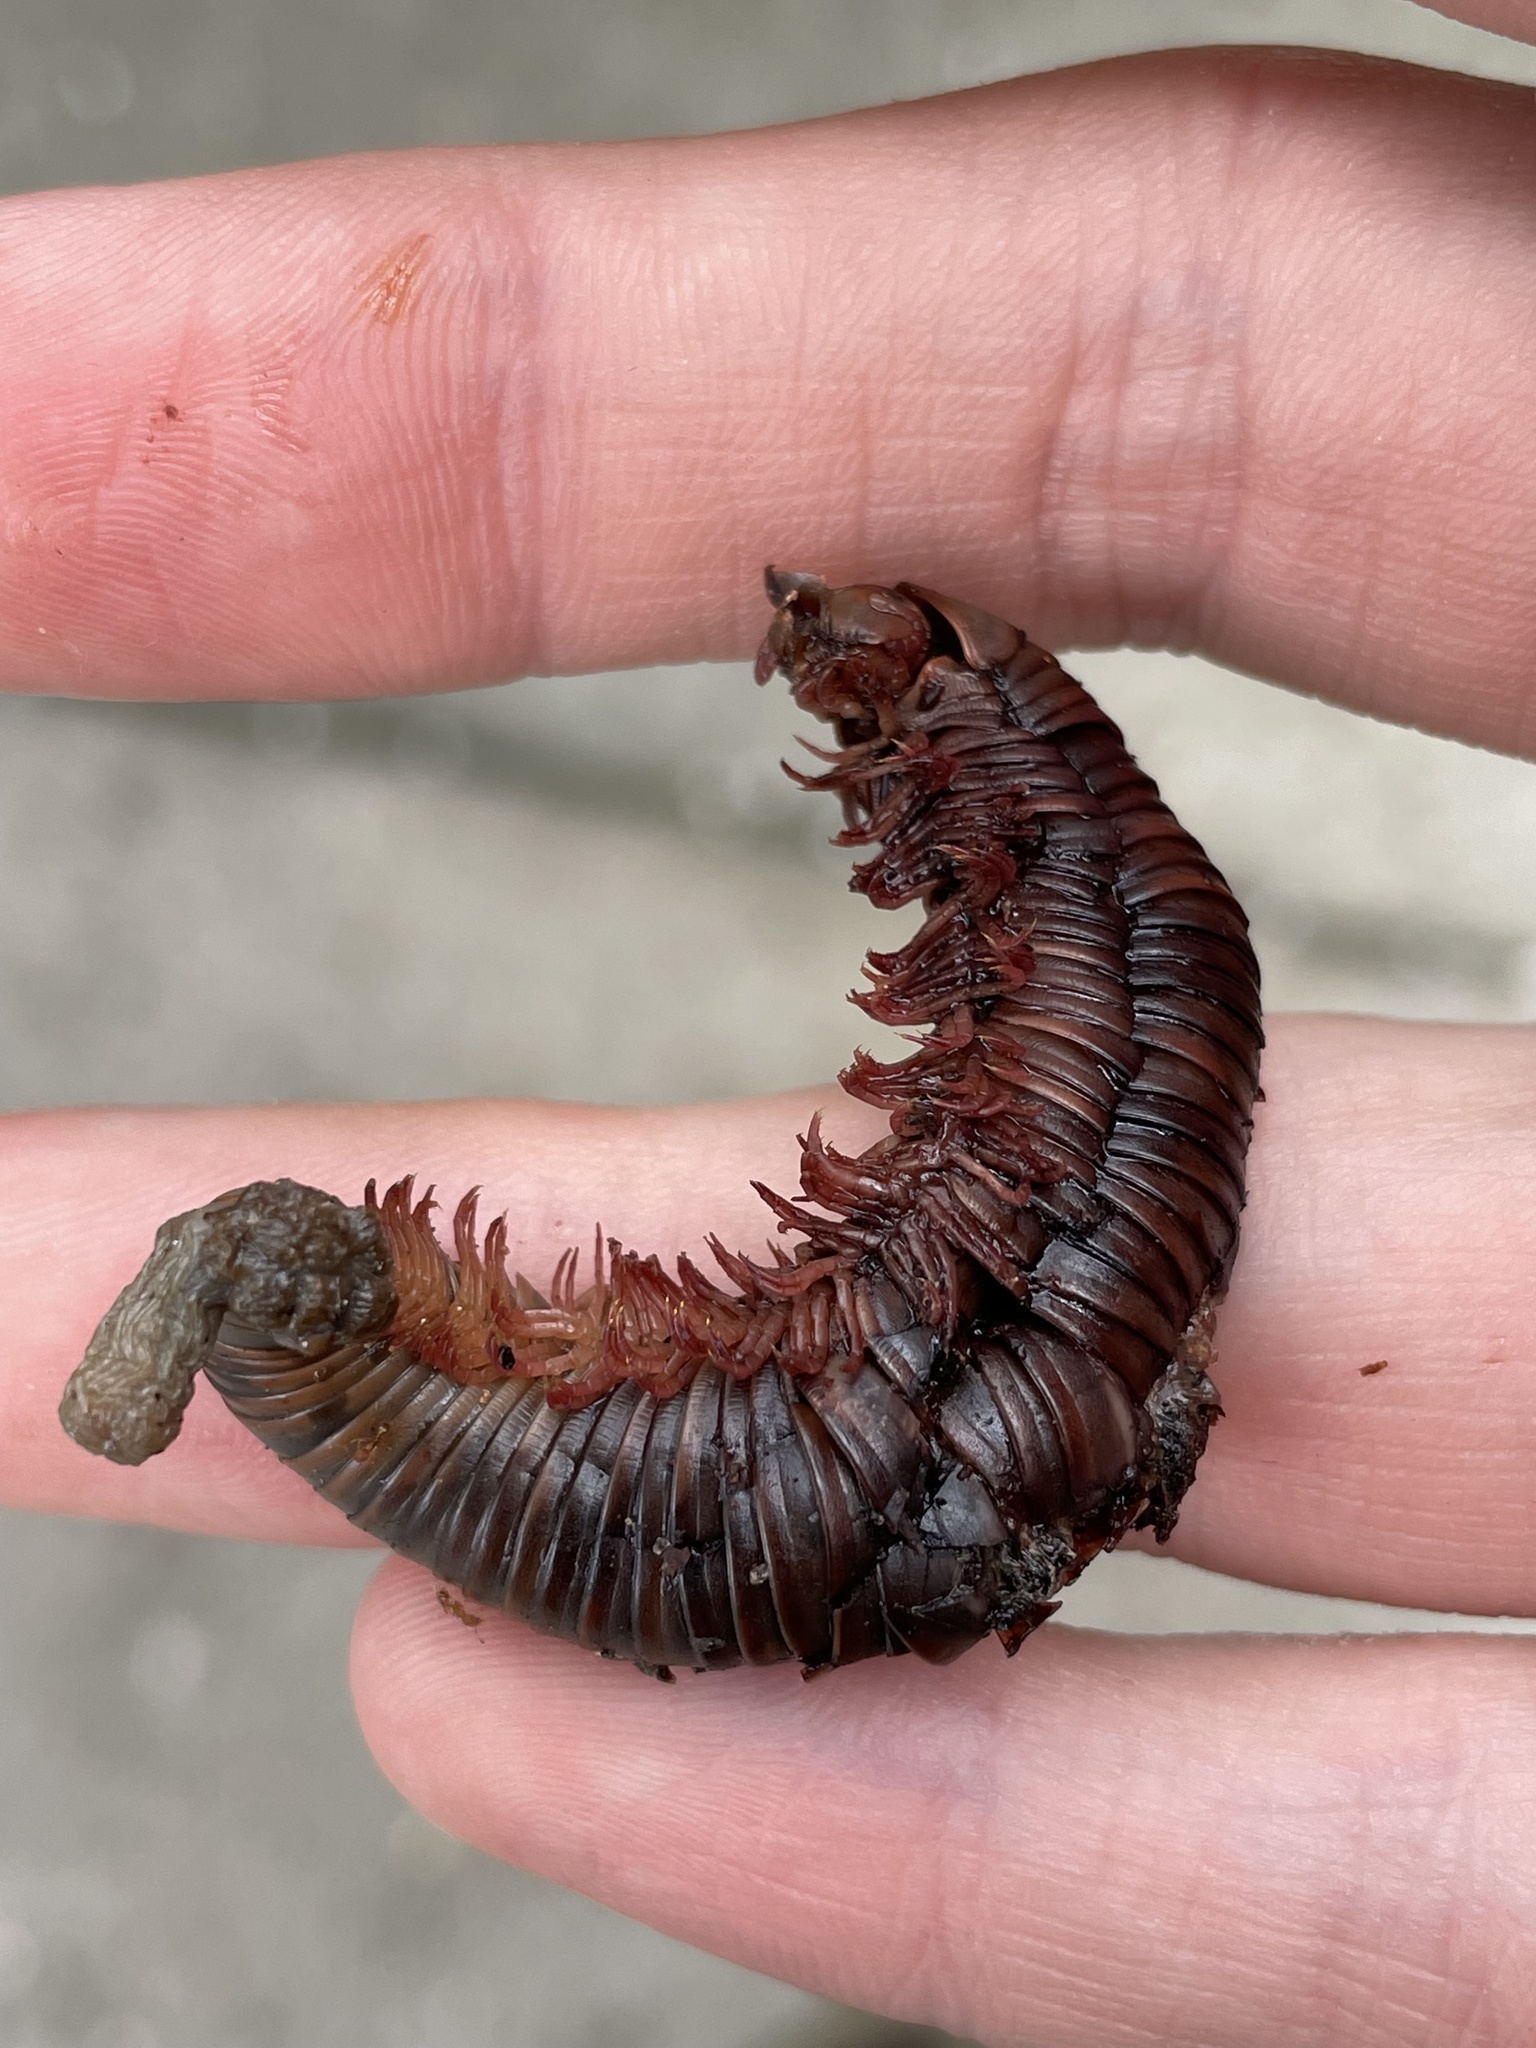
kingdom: Animalia
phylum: Arthropoda
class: Diplopoda
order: Spirobolida
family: Spirobolidae
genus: Narceus
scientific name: Narceus
